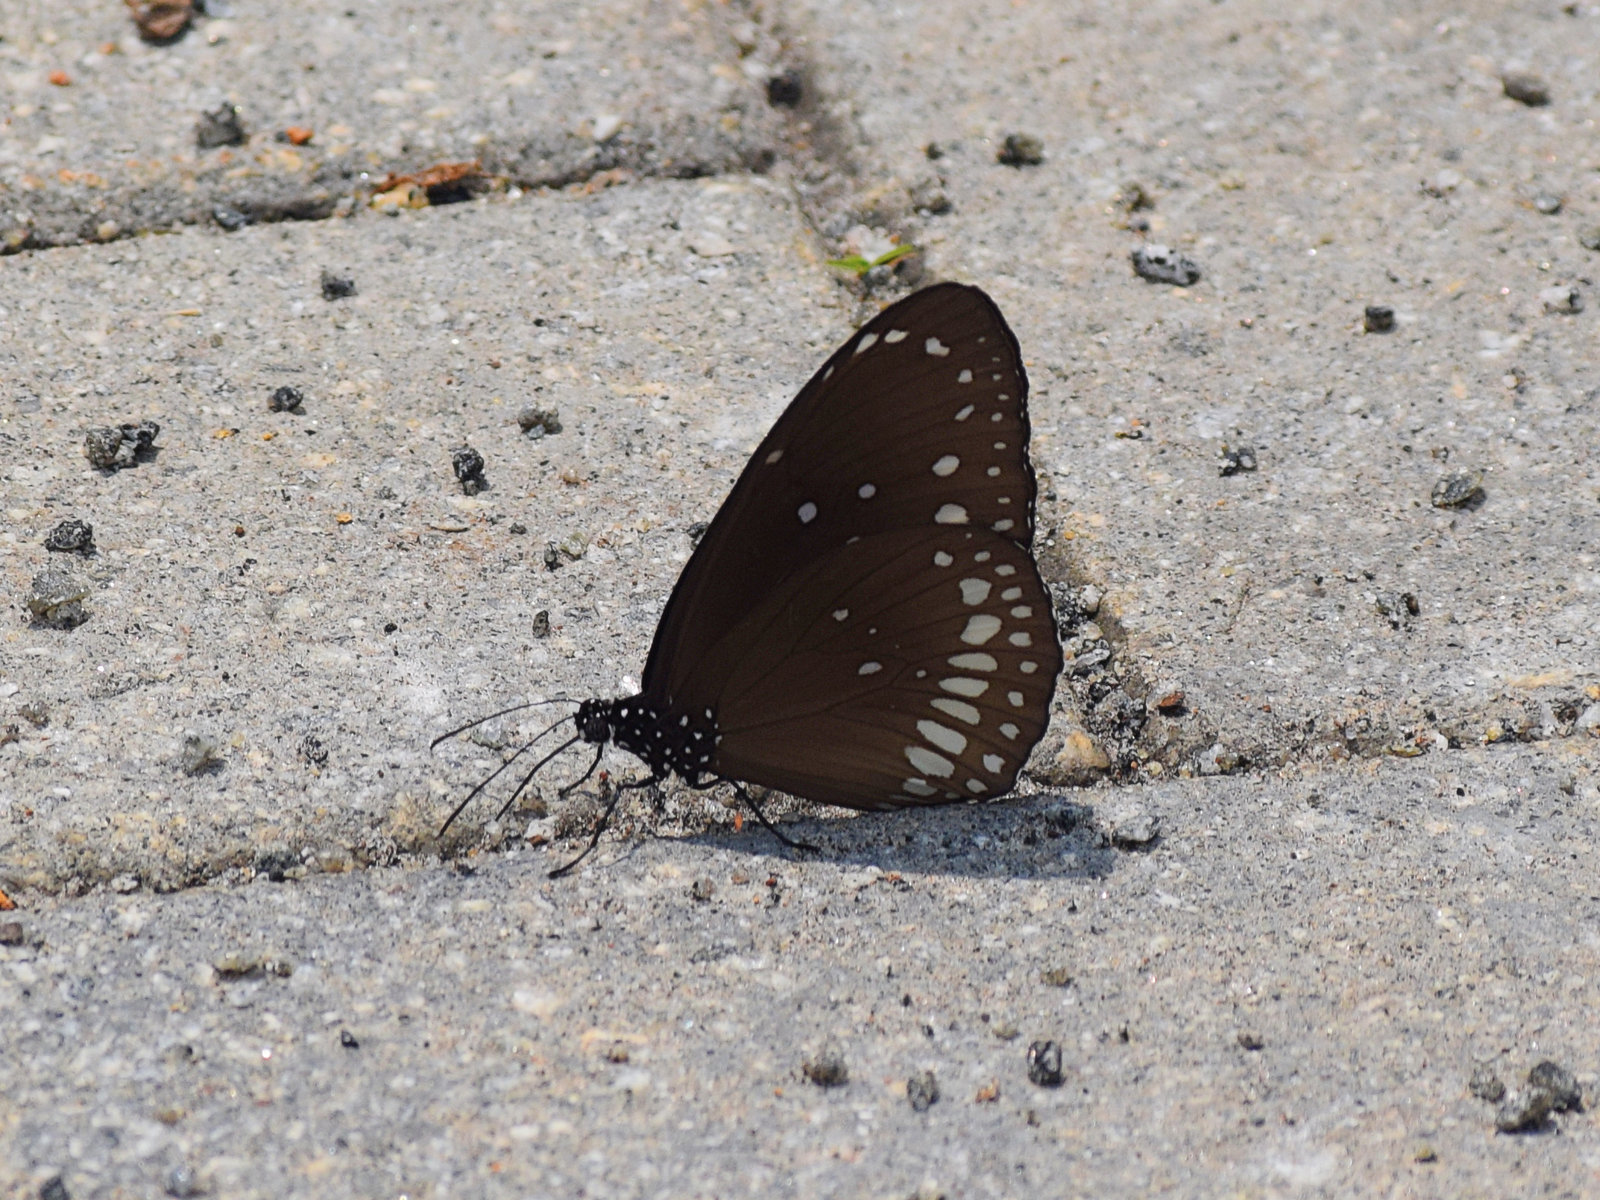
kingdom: Animalia
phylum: Arthropoda
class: Insecta
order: Lepidoptera
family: Nymphalidae
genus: Euploea
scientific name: Euploea core
